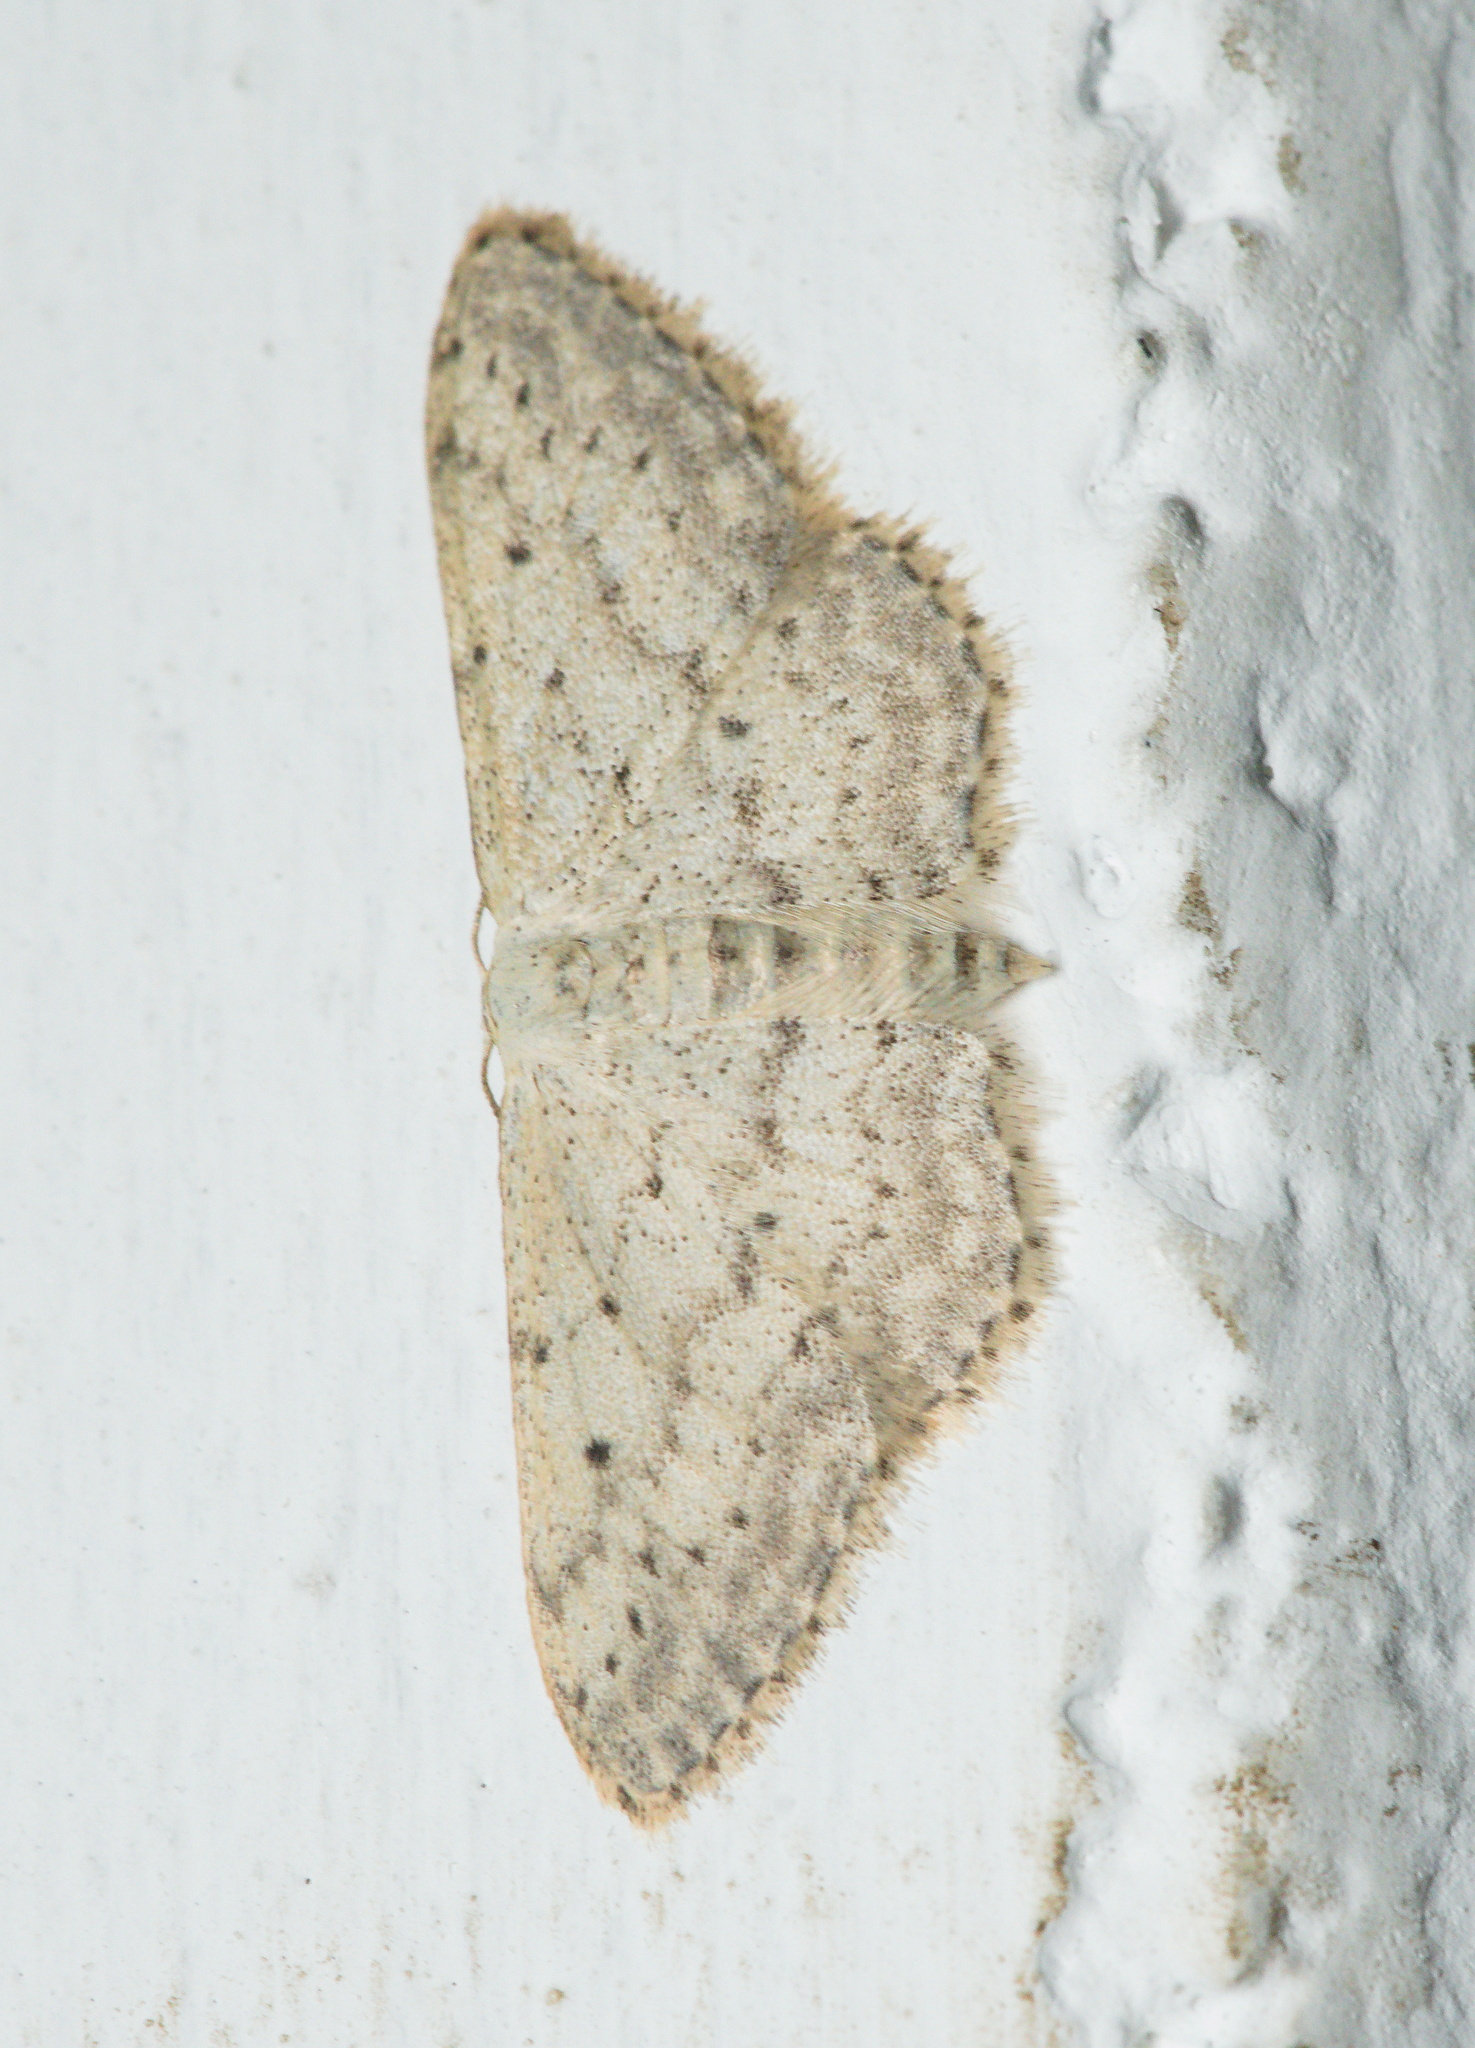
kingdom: Animalia
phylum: Arthropoda
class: Insecta
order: Lepidoptera
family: Geometridae
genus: Idaea
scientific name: Idaea seriata
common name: Small dusty wave
